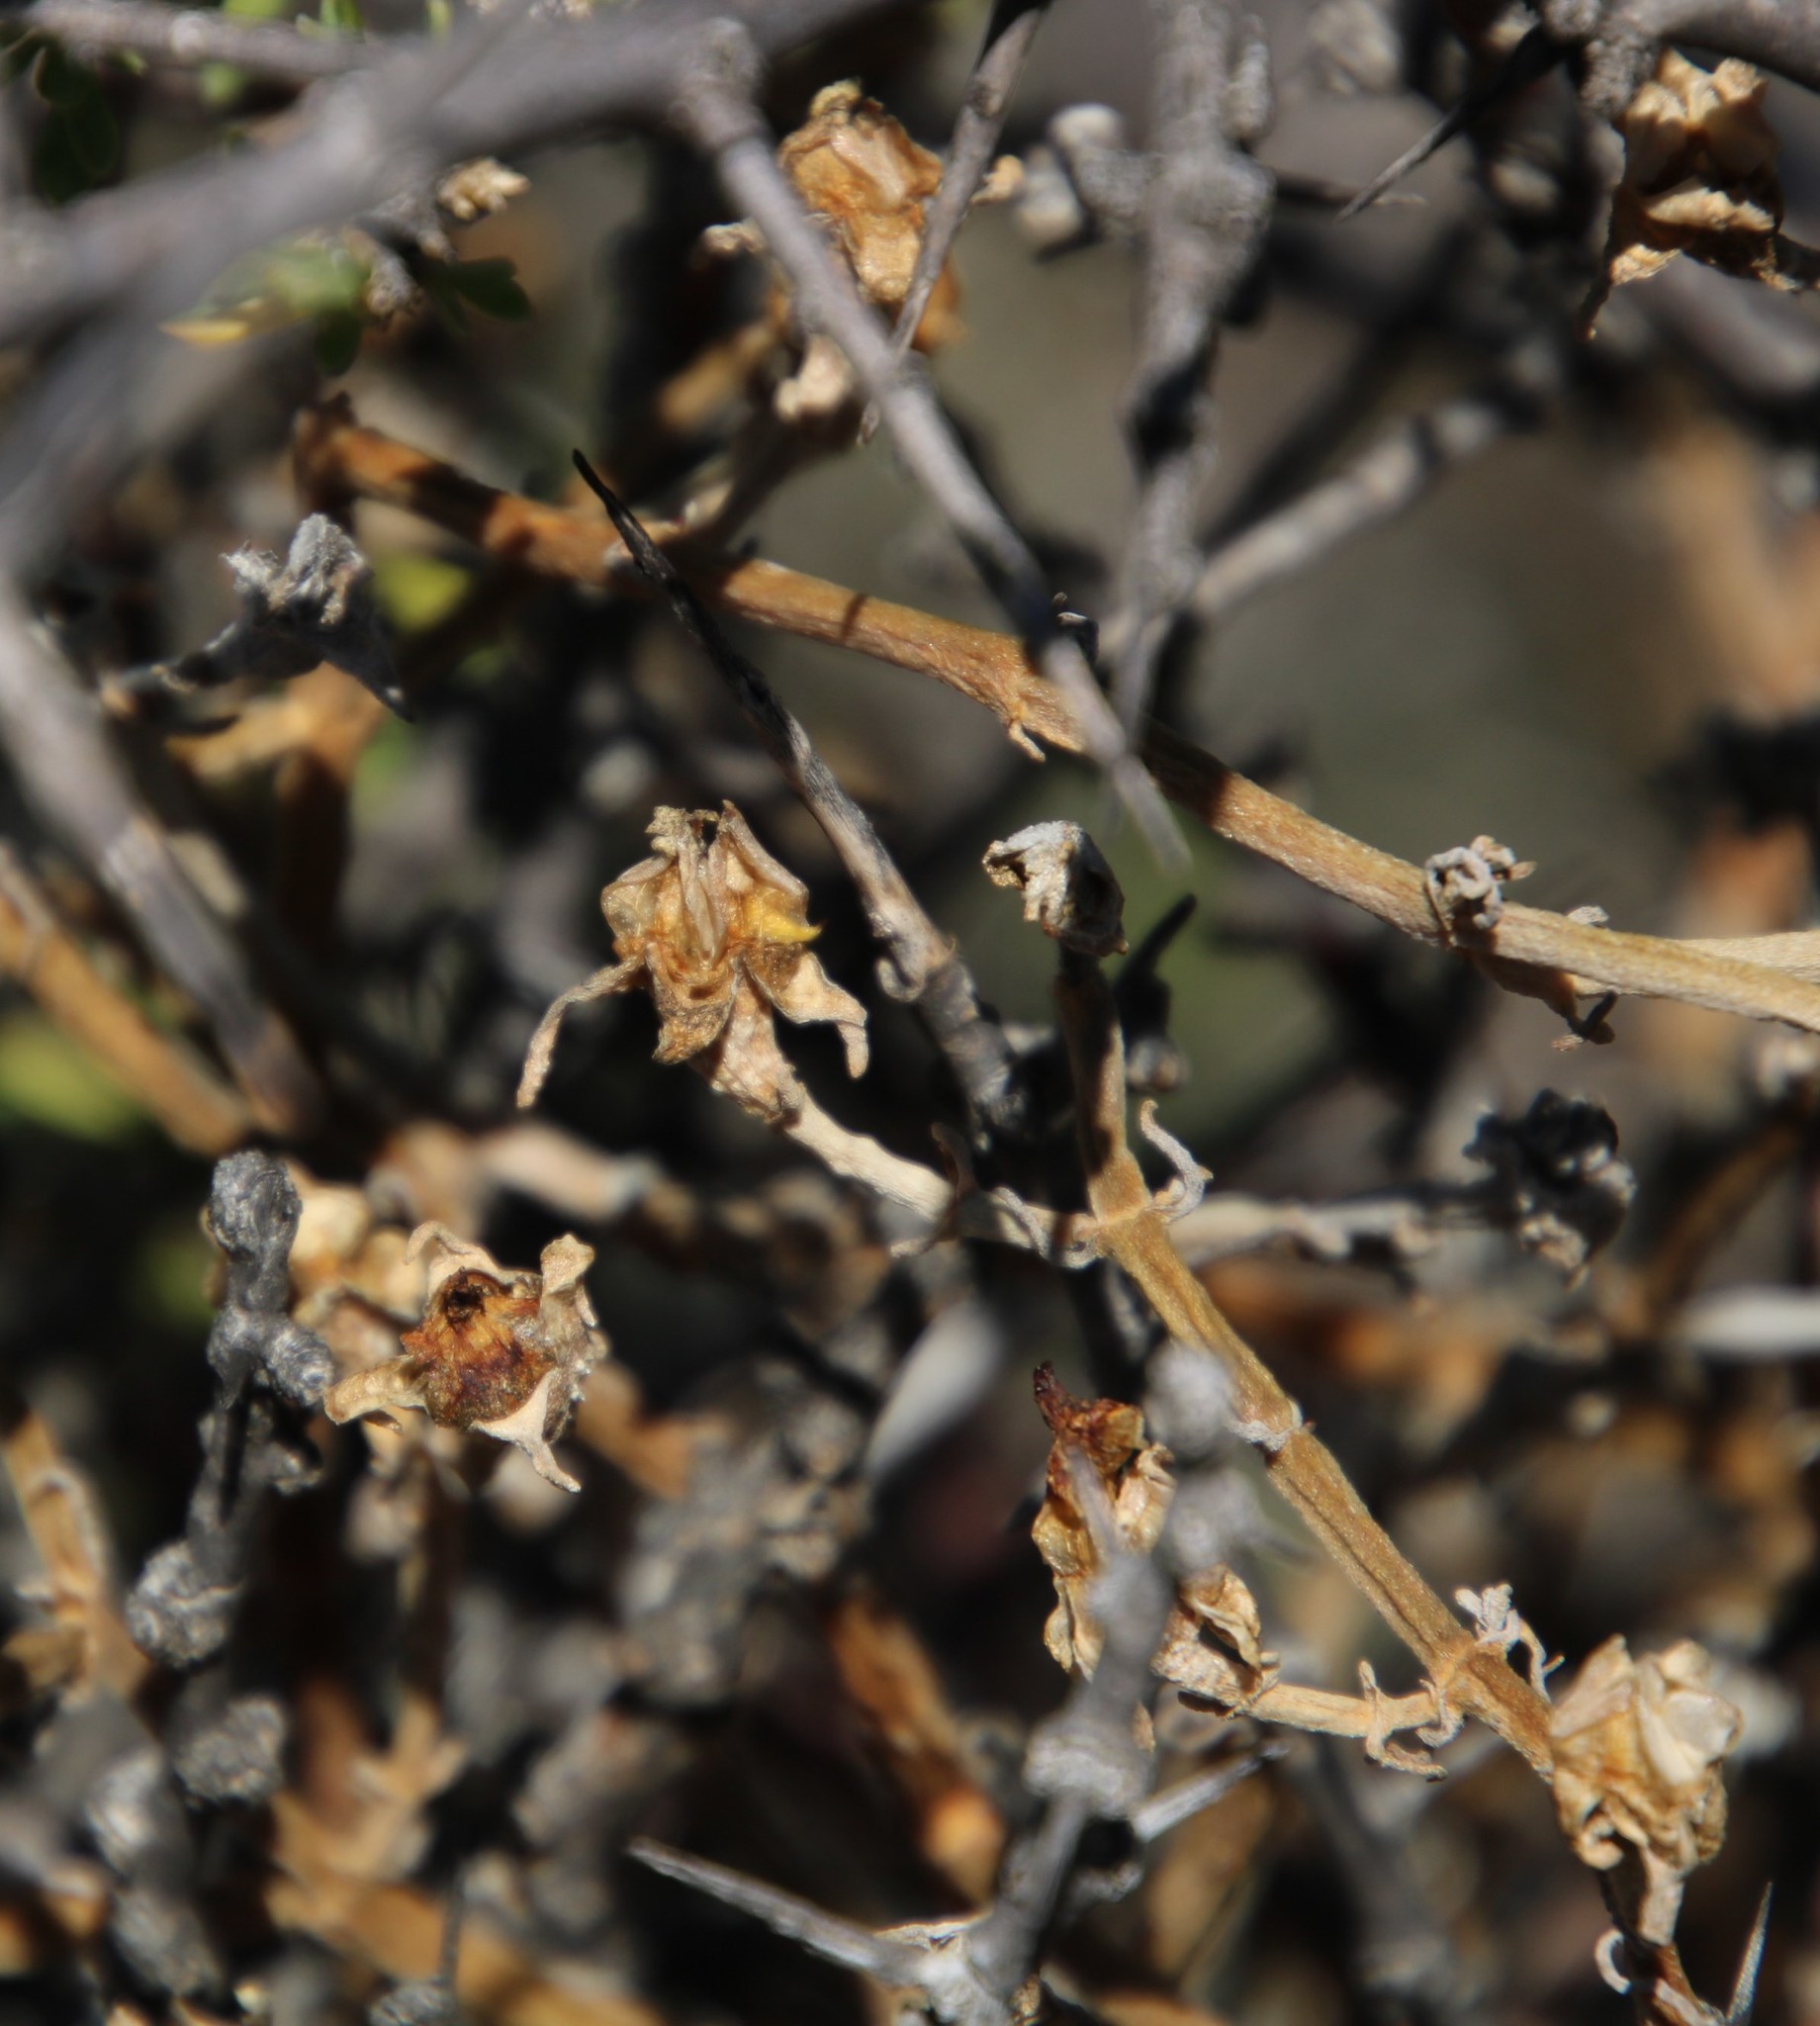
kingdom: Plantae
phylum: Tracheophyta
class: Magnoliopsida
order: Caryophyllales
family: Aizoaceae
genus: Mesembryanthemum
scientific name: Mesembryanthemum geniculiflorum
